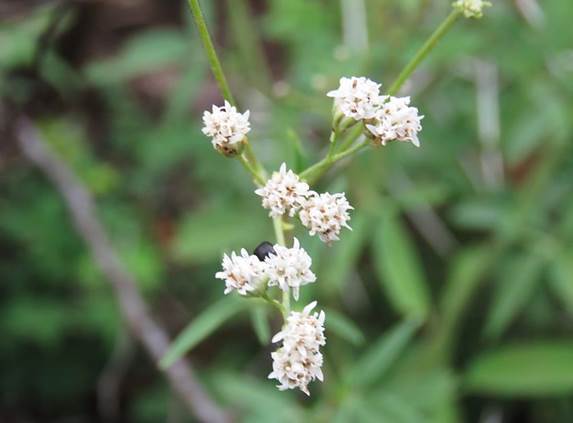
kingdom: Plantae
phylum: Tracheophyta
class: Magnoliopsida
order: Asterales
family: Asteraceae
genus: Florestina
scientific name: Florestina tripteris
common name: Sticky florestina
